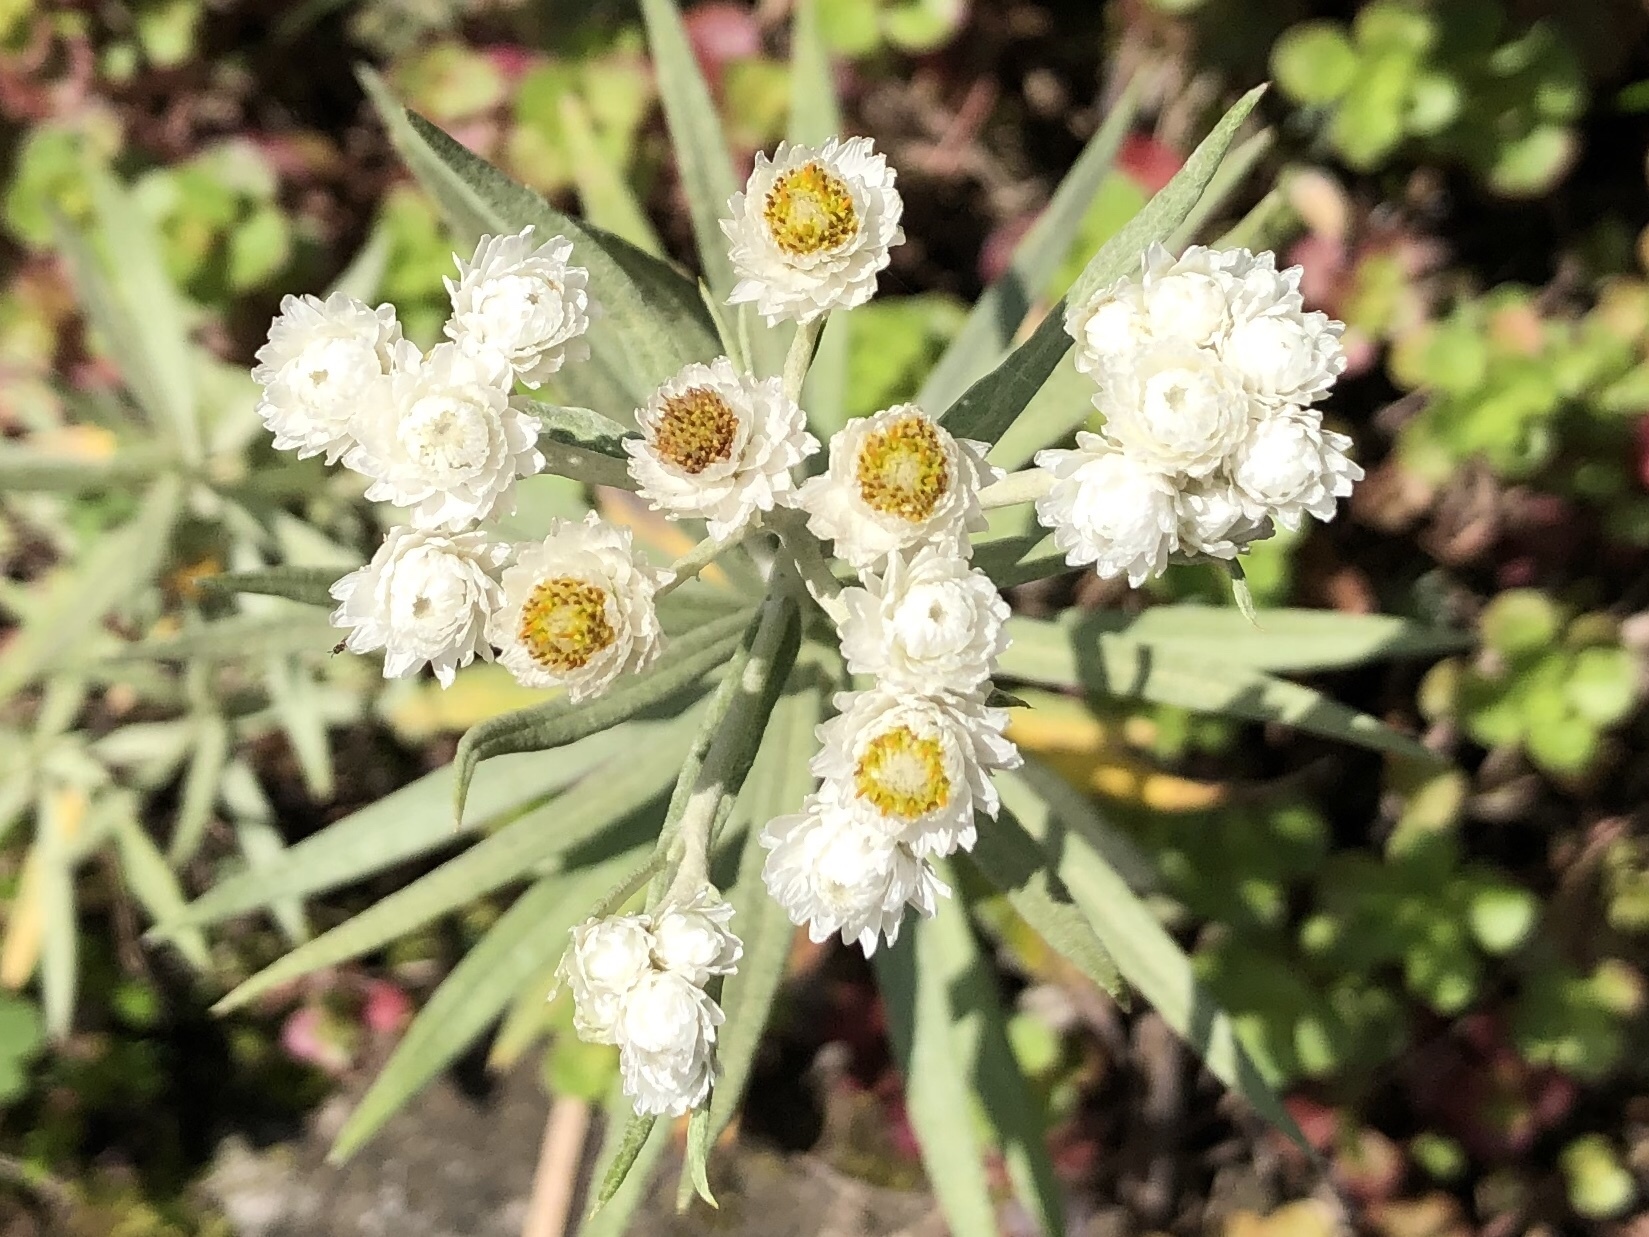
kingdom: Plantae
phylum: Tracheophyta
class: Magnoliopsida
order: Asterales
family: Asteraceae
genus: Anaphalis
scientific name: Anaphalis margaritacea
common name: Pearly everlasting
